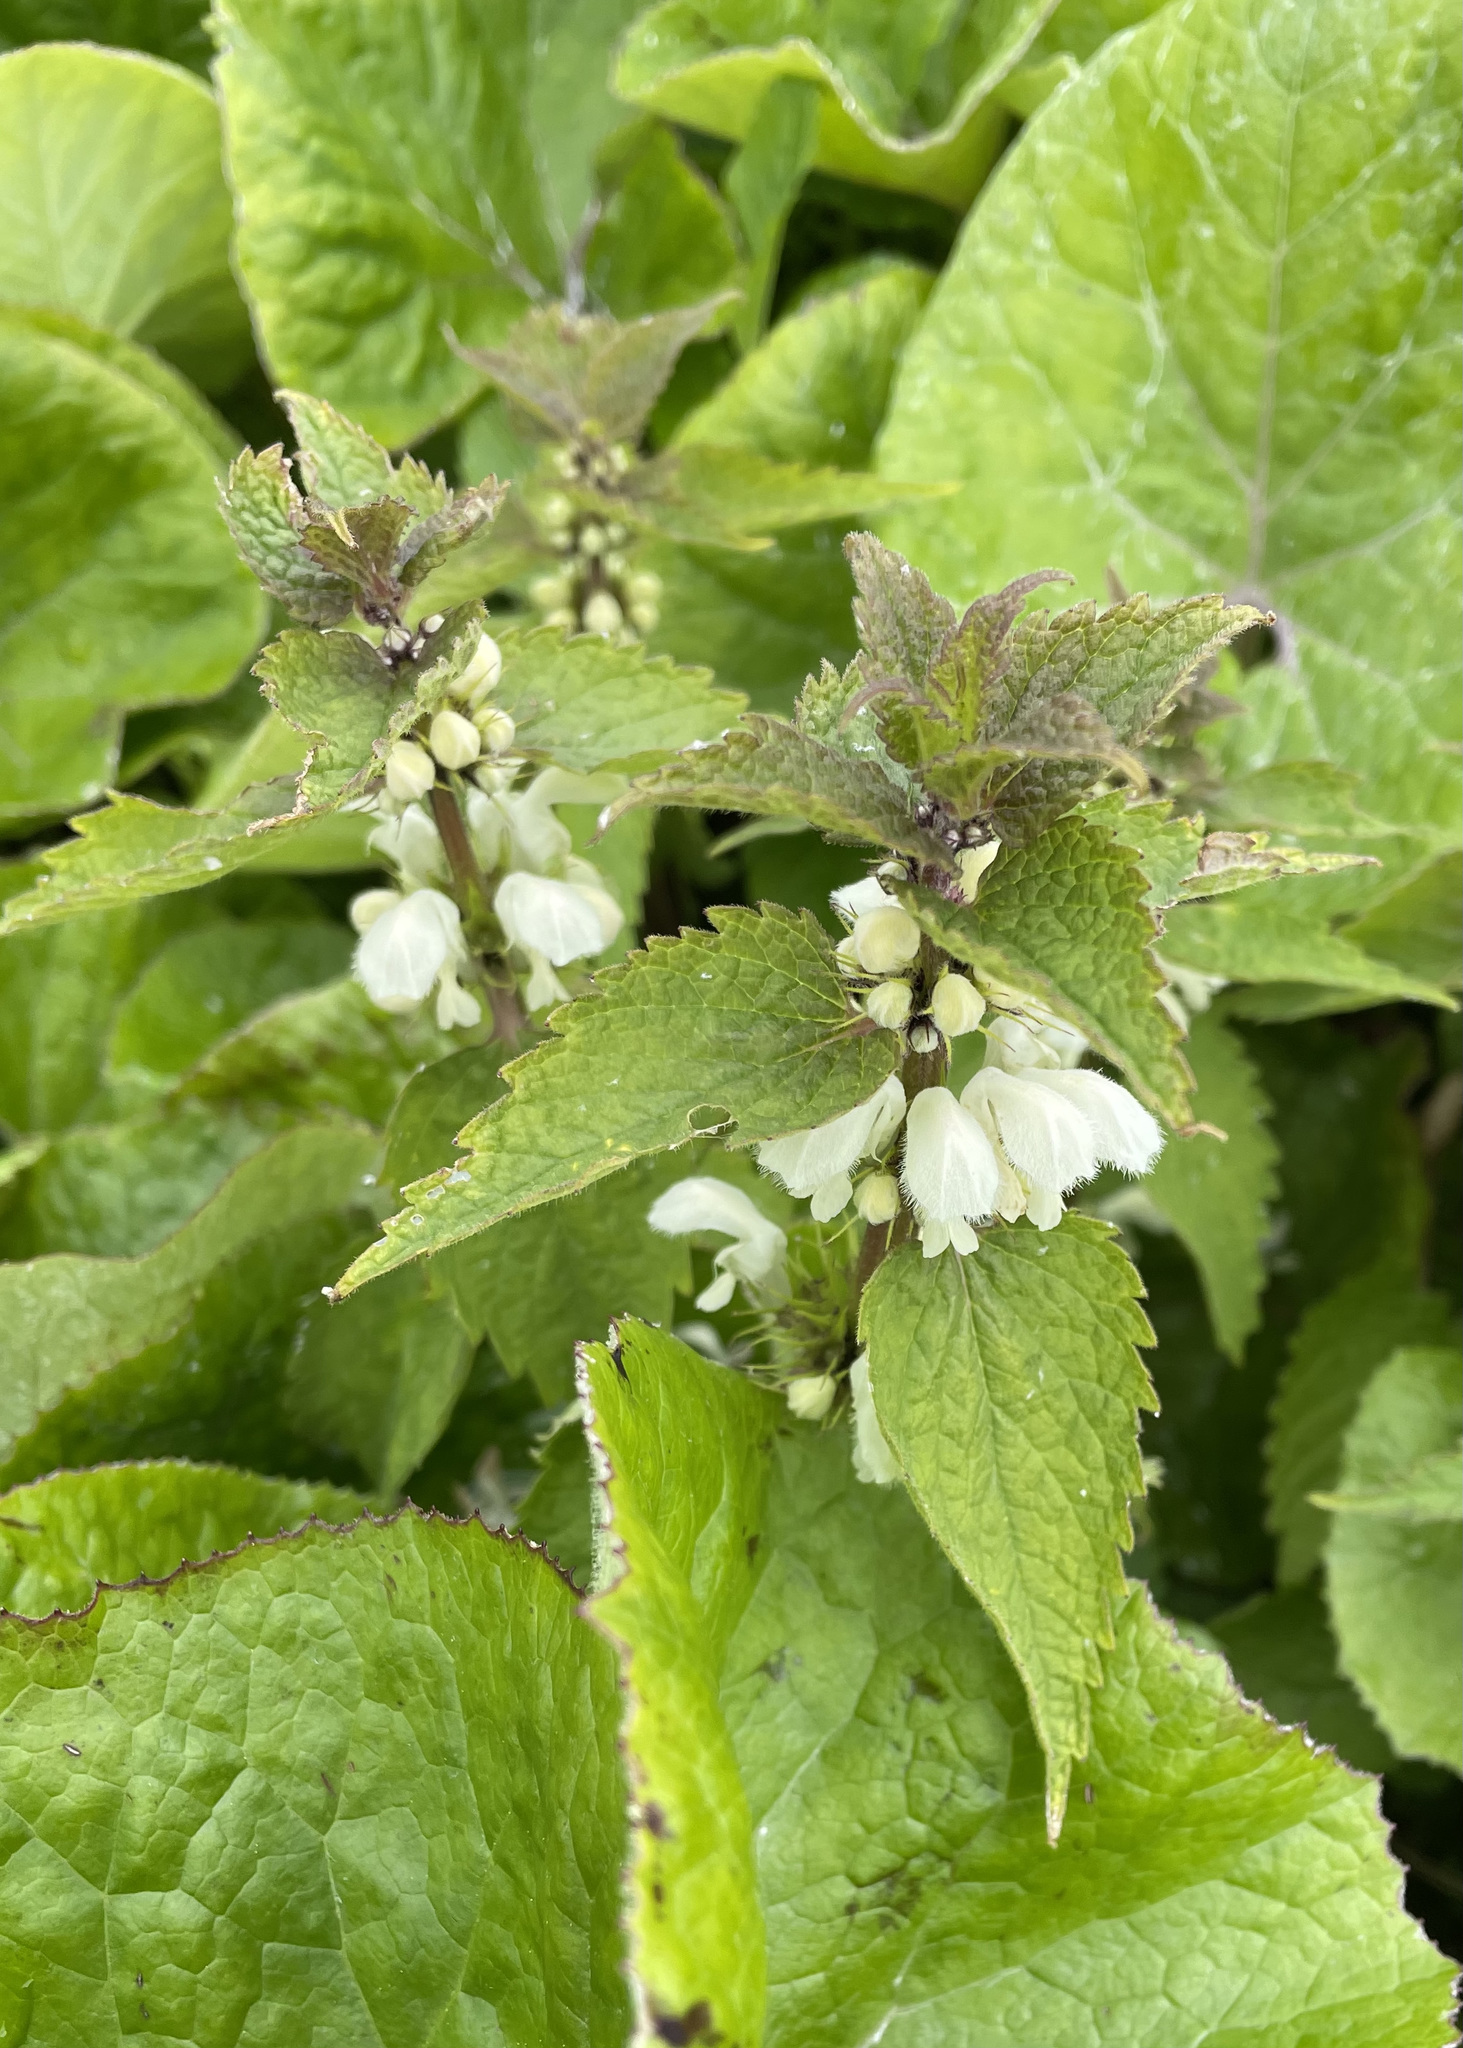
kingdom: Plantae
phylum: Tracheophyta
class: Magnoliopsida
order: Lamiales
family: Lamiaceae
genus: Lamium
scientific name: Lamium album
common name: White dead-nettle
